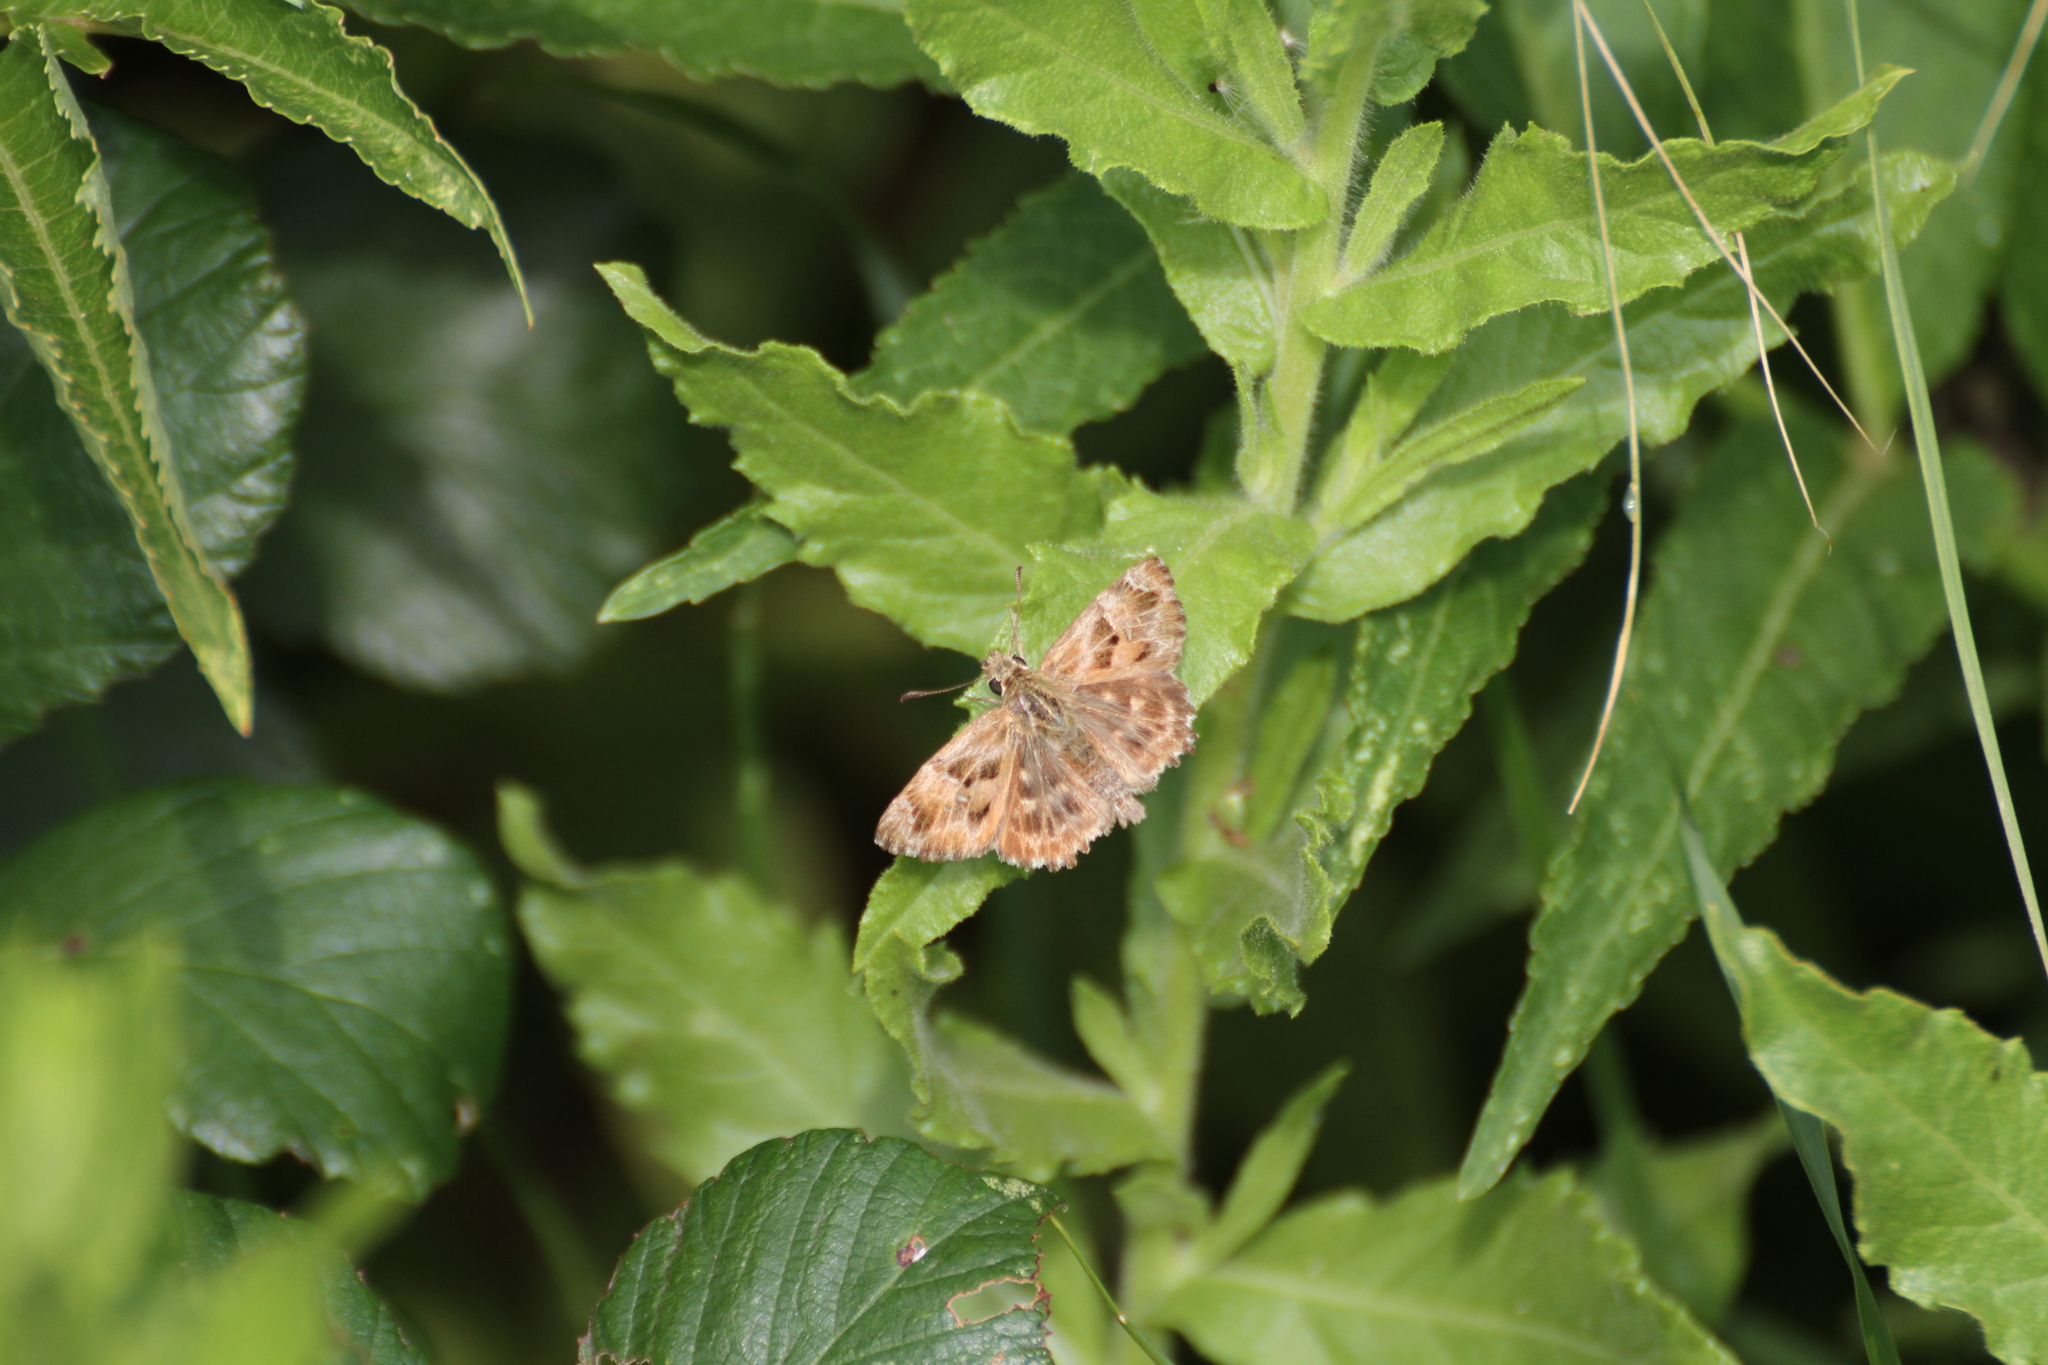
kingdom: Animalia
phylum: Arthropoda
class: Insecta
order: Lepidoptera
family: Hesperiidae
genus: Carcharodus
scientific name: Carcharodus alceae
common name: Mallow skipper
